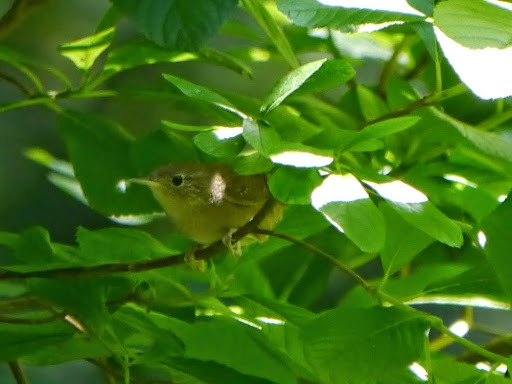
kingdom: Animalia
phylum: Chordata
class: Aves
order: Passeriformes
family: Troglodytidae
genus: Troglodytes
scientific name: Troglodytes aedon
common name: House wren
